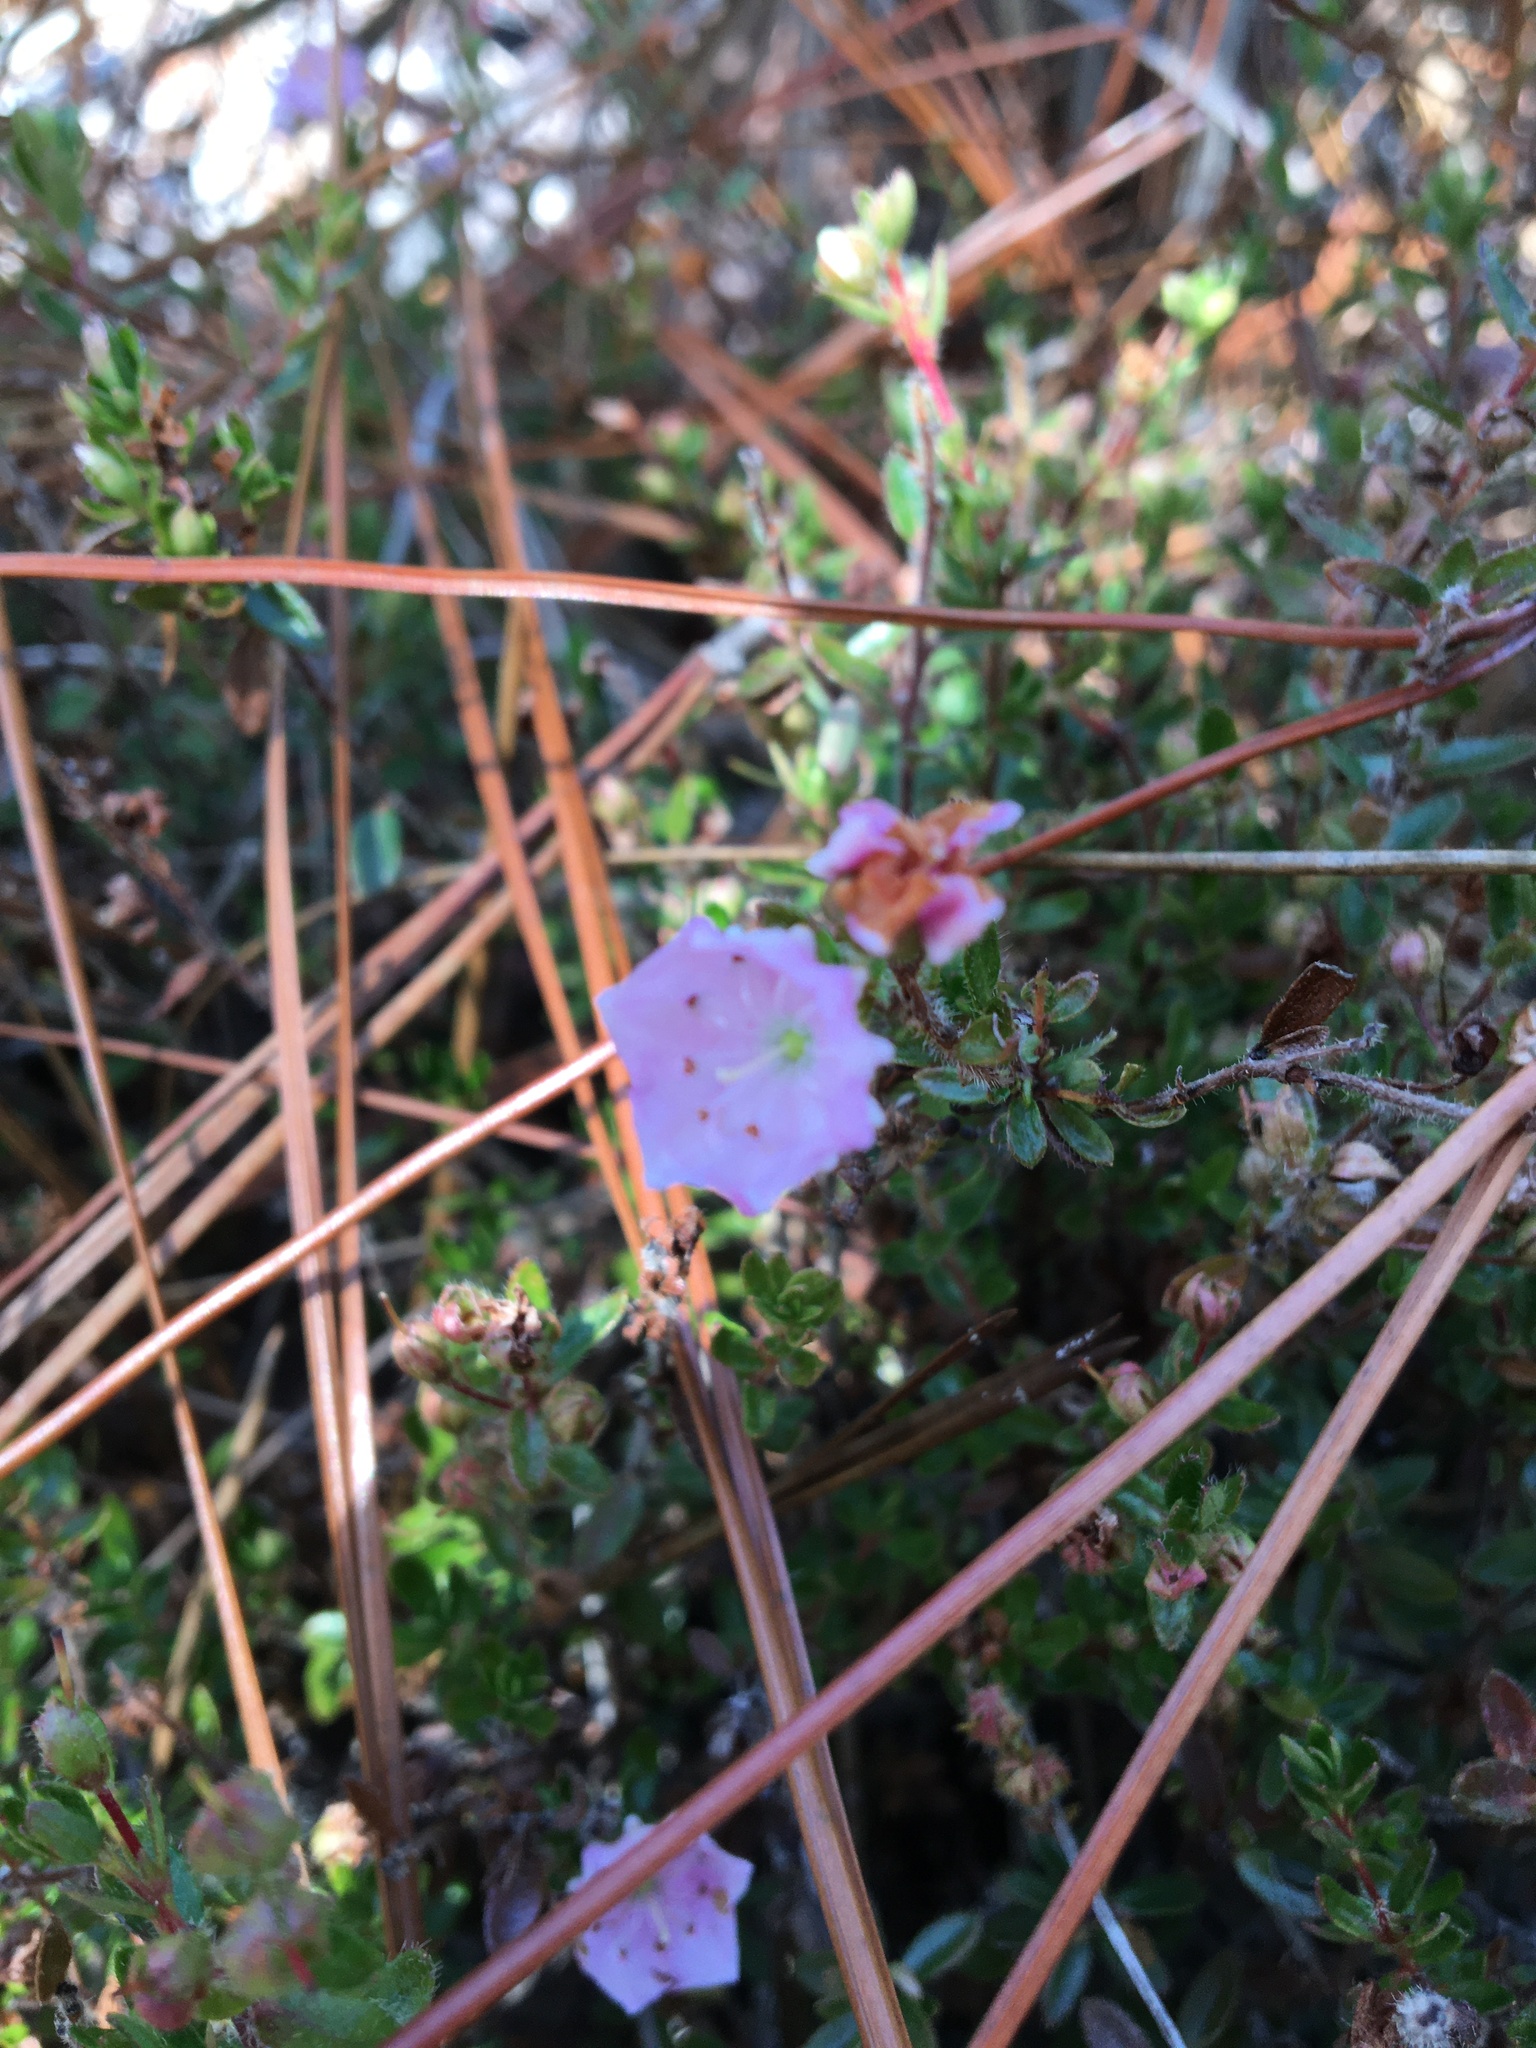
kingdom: Plantae
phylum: Tracheophyta
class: Magnoliopsida
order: Ericales
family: Ericaceae
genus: Kalmia
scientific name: Kalmia hirsuta
